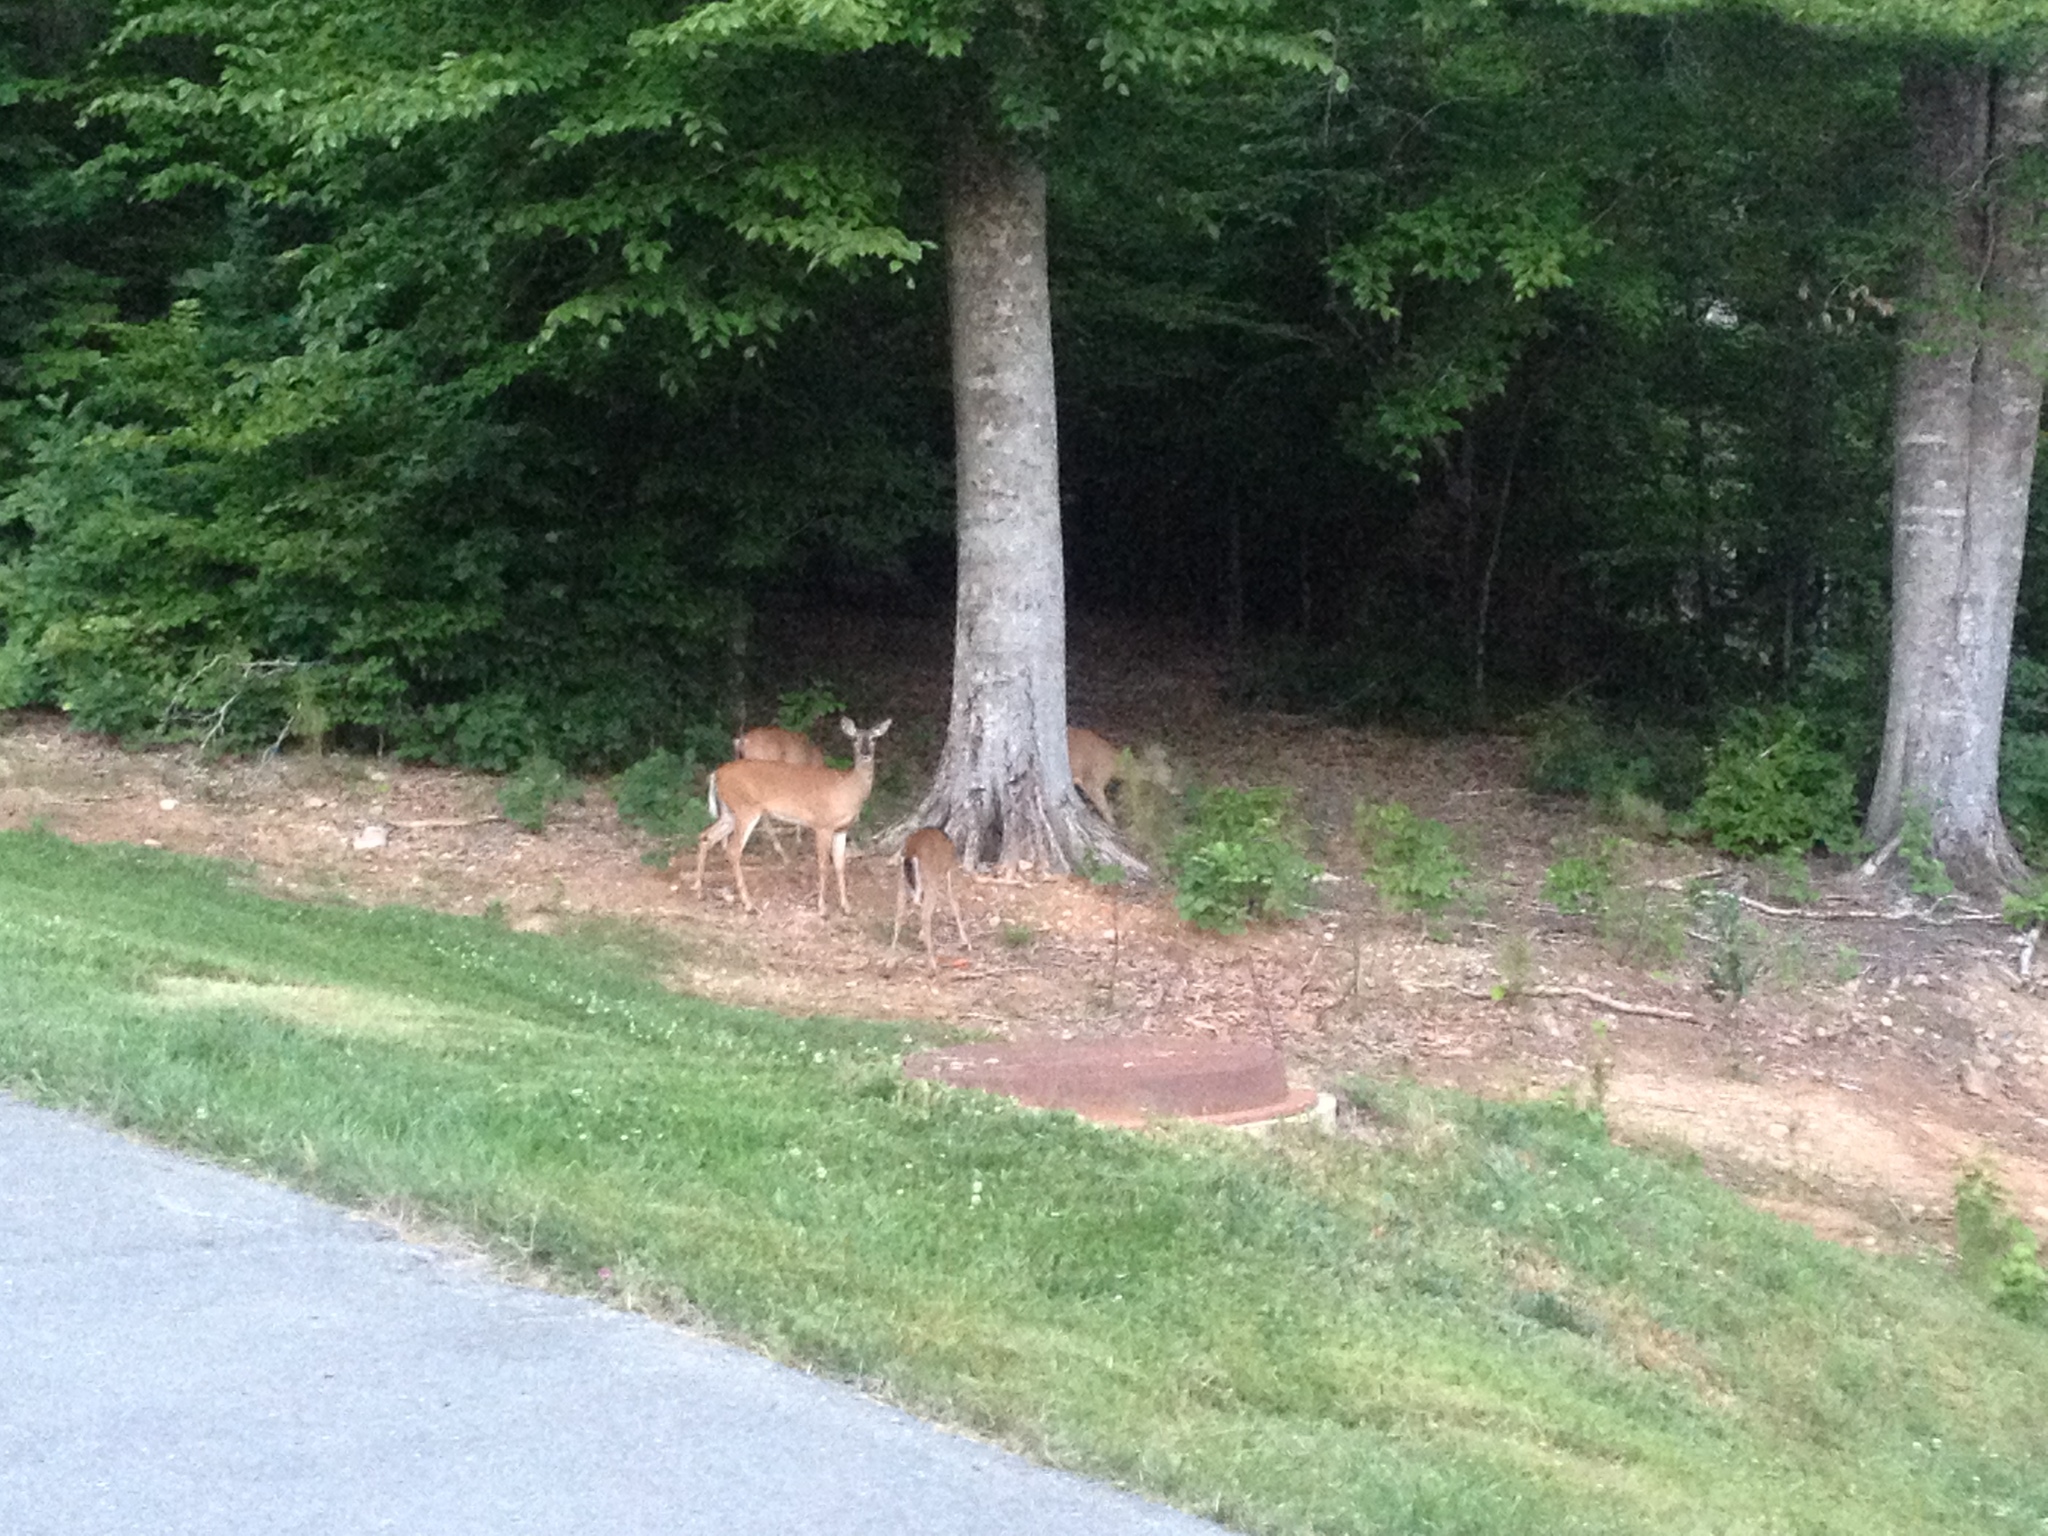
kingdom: Animalia
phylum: Chordata
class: Mammalia
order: Artiodactyla
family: Cervidae
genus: Odocoileus
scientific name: Odocoileus virginianus
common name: White-tailed deer
